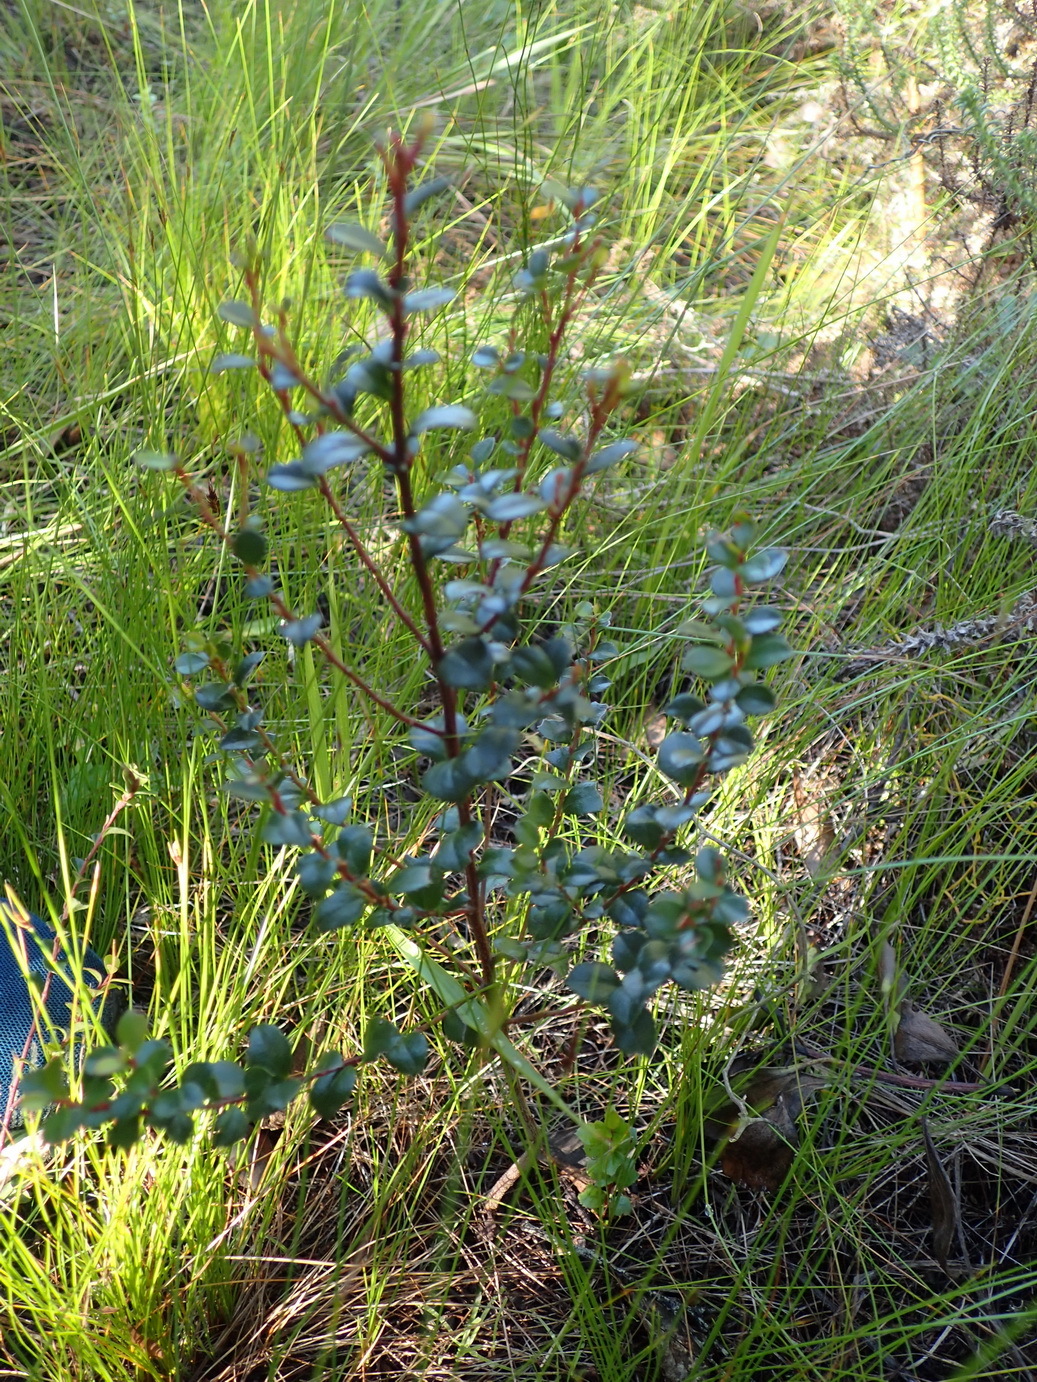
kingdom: Plantae
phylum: Tracheophyta
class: Magnoliopsida
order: Ericales
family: Primulaceae
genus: Myrsine
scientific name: Myrsine africana
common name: African-boxwood
